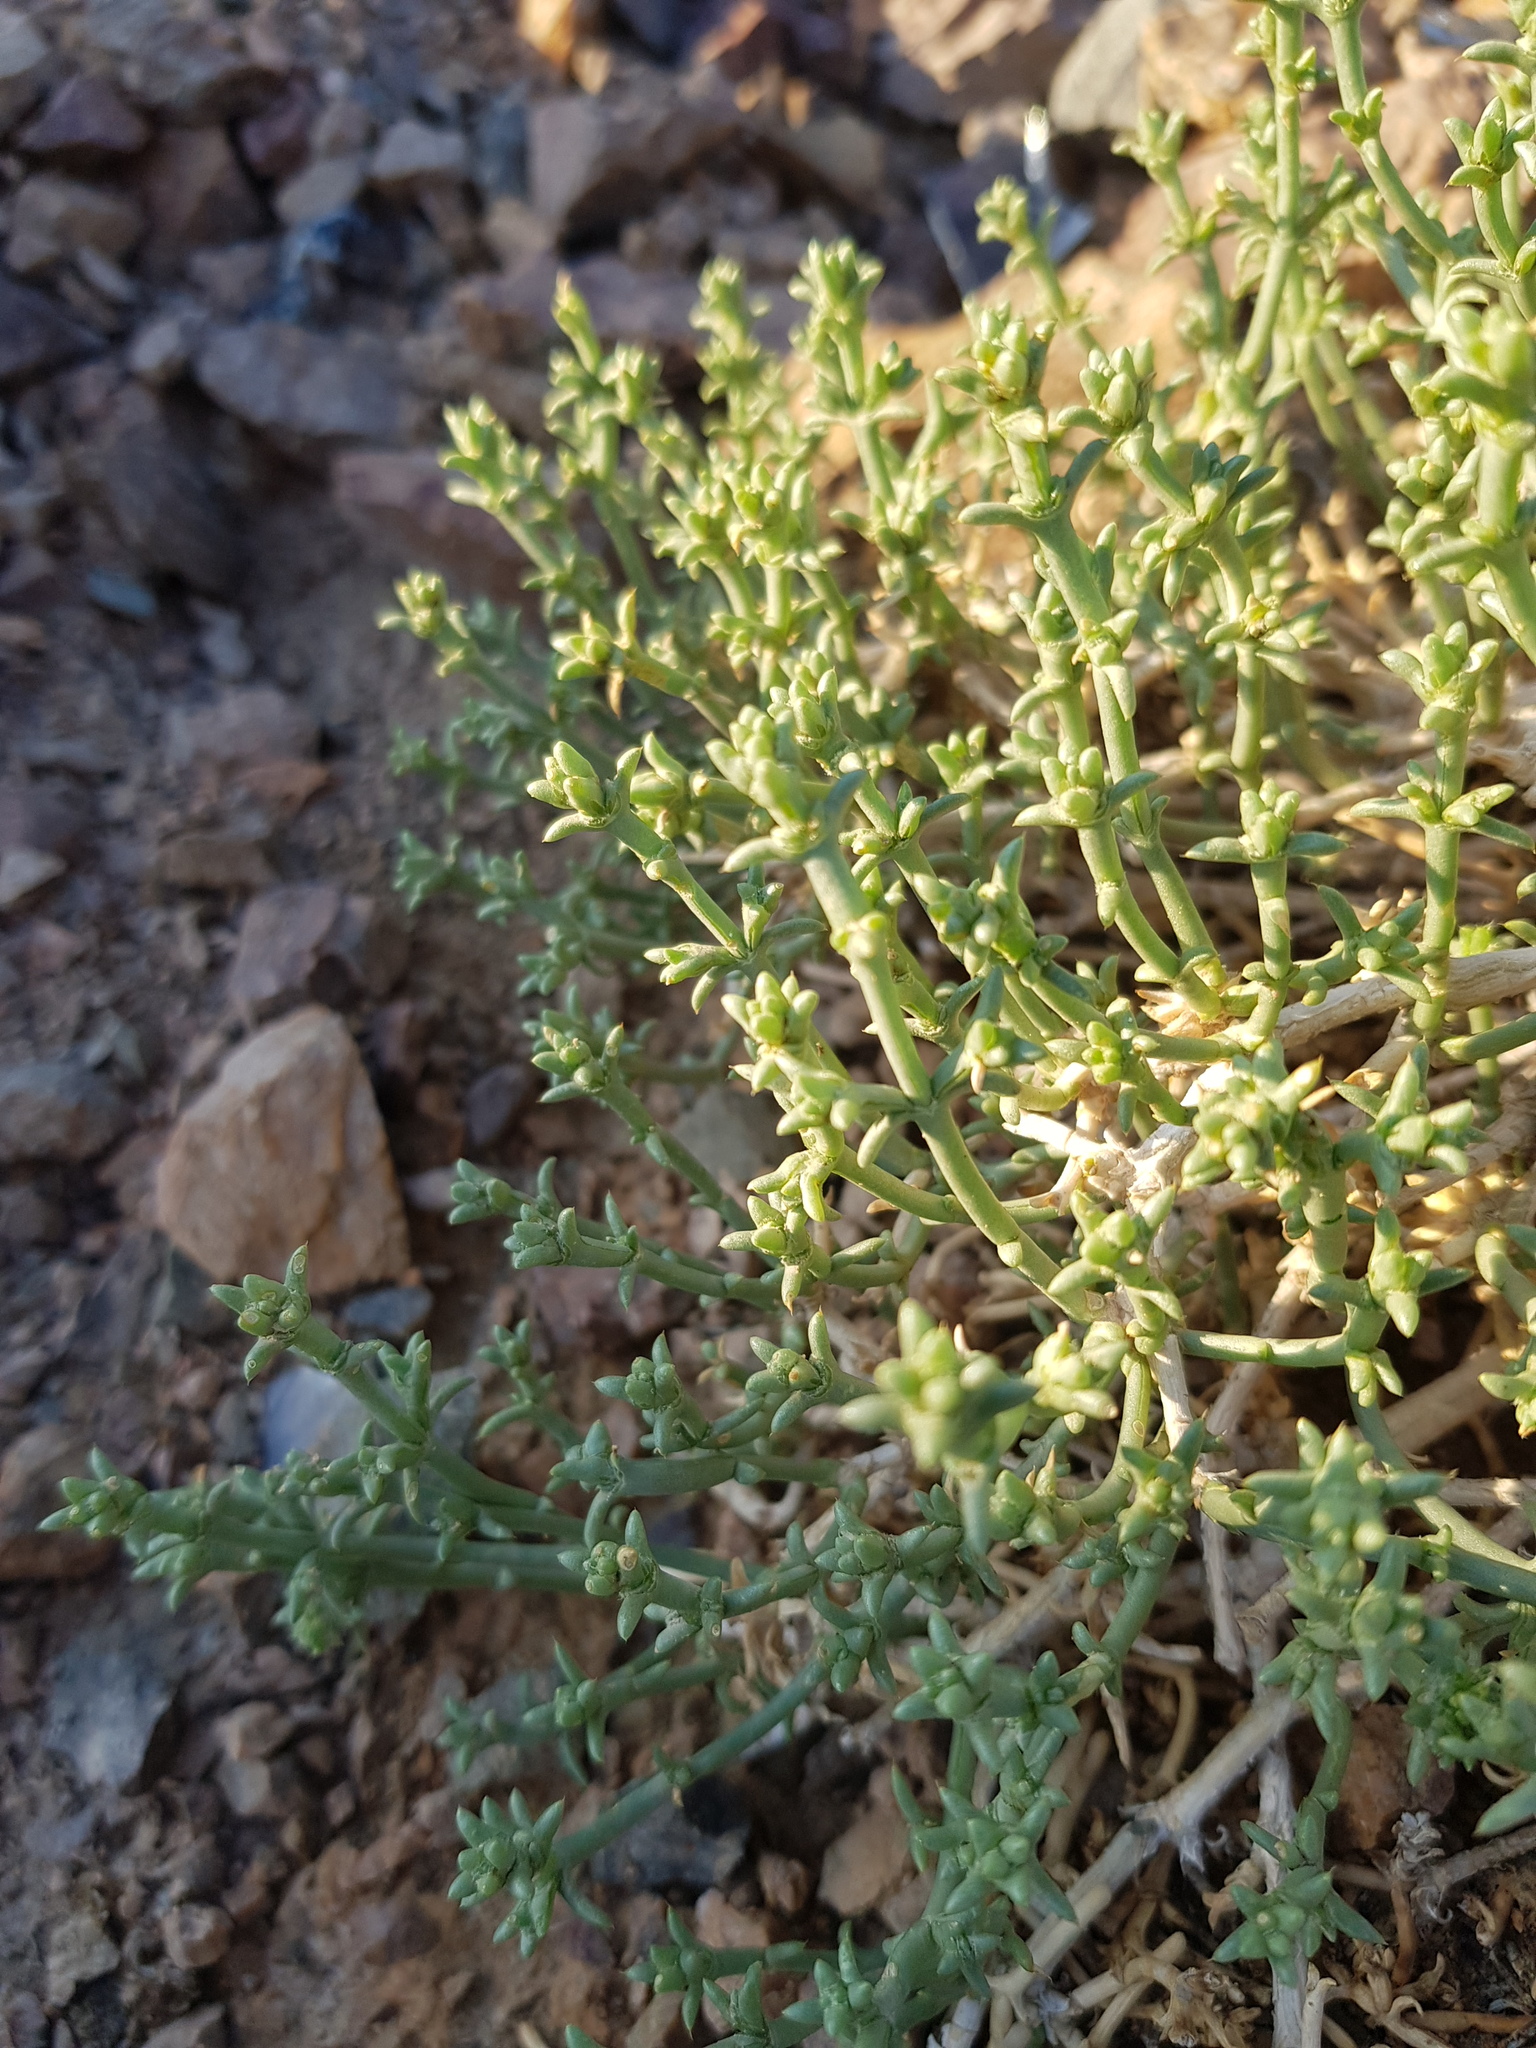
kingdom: Plantae
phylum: Tracheophyta
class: Magnoliopsida
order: Caryophyllales
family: Amaranthaceae
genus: Anabasis
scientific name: Anabasis brevifolia
